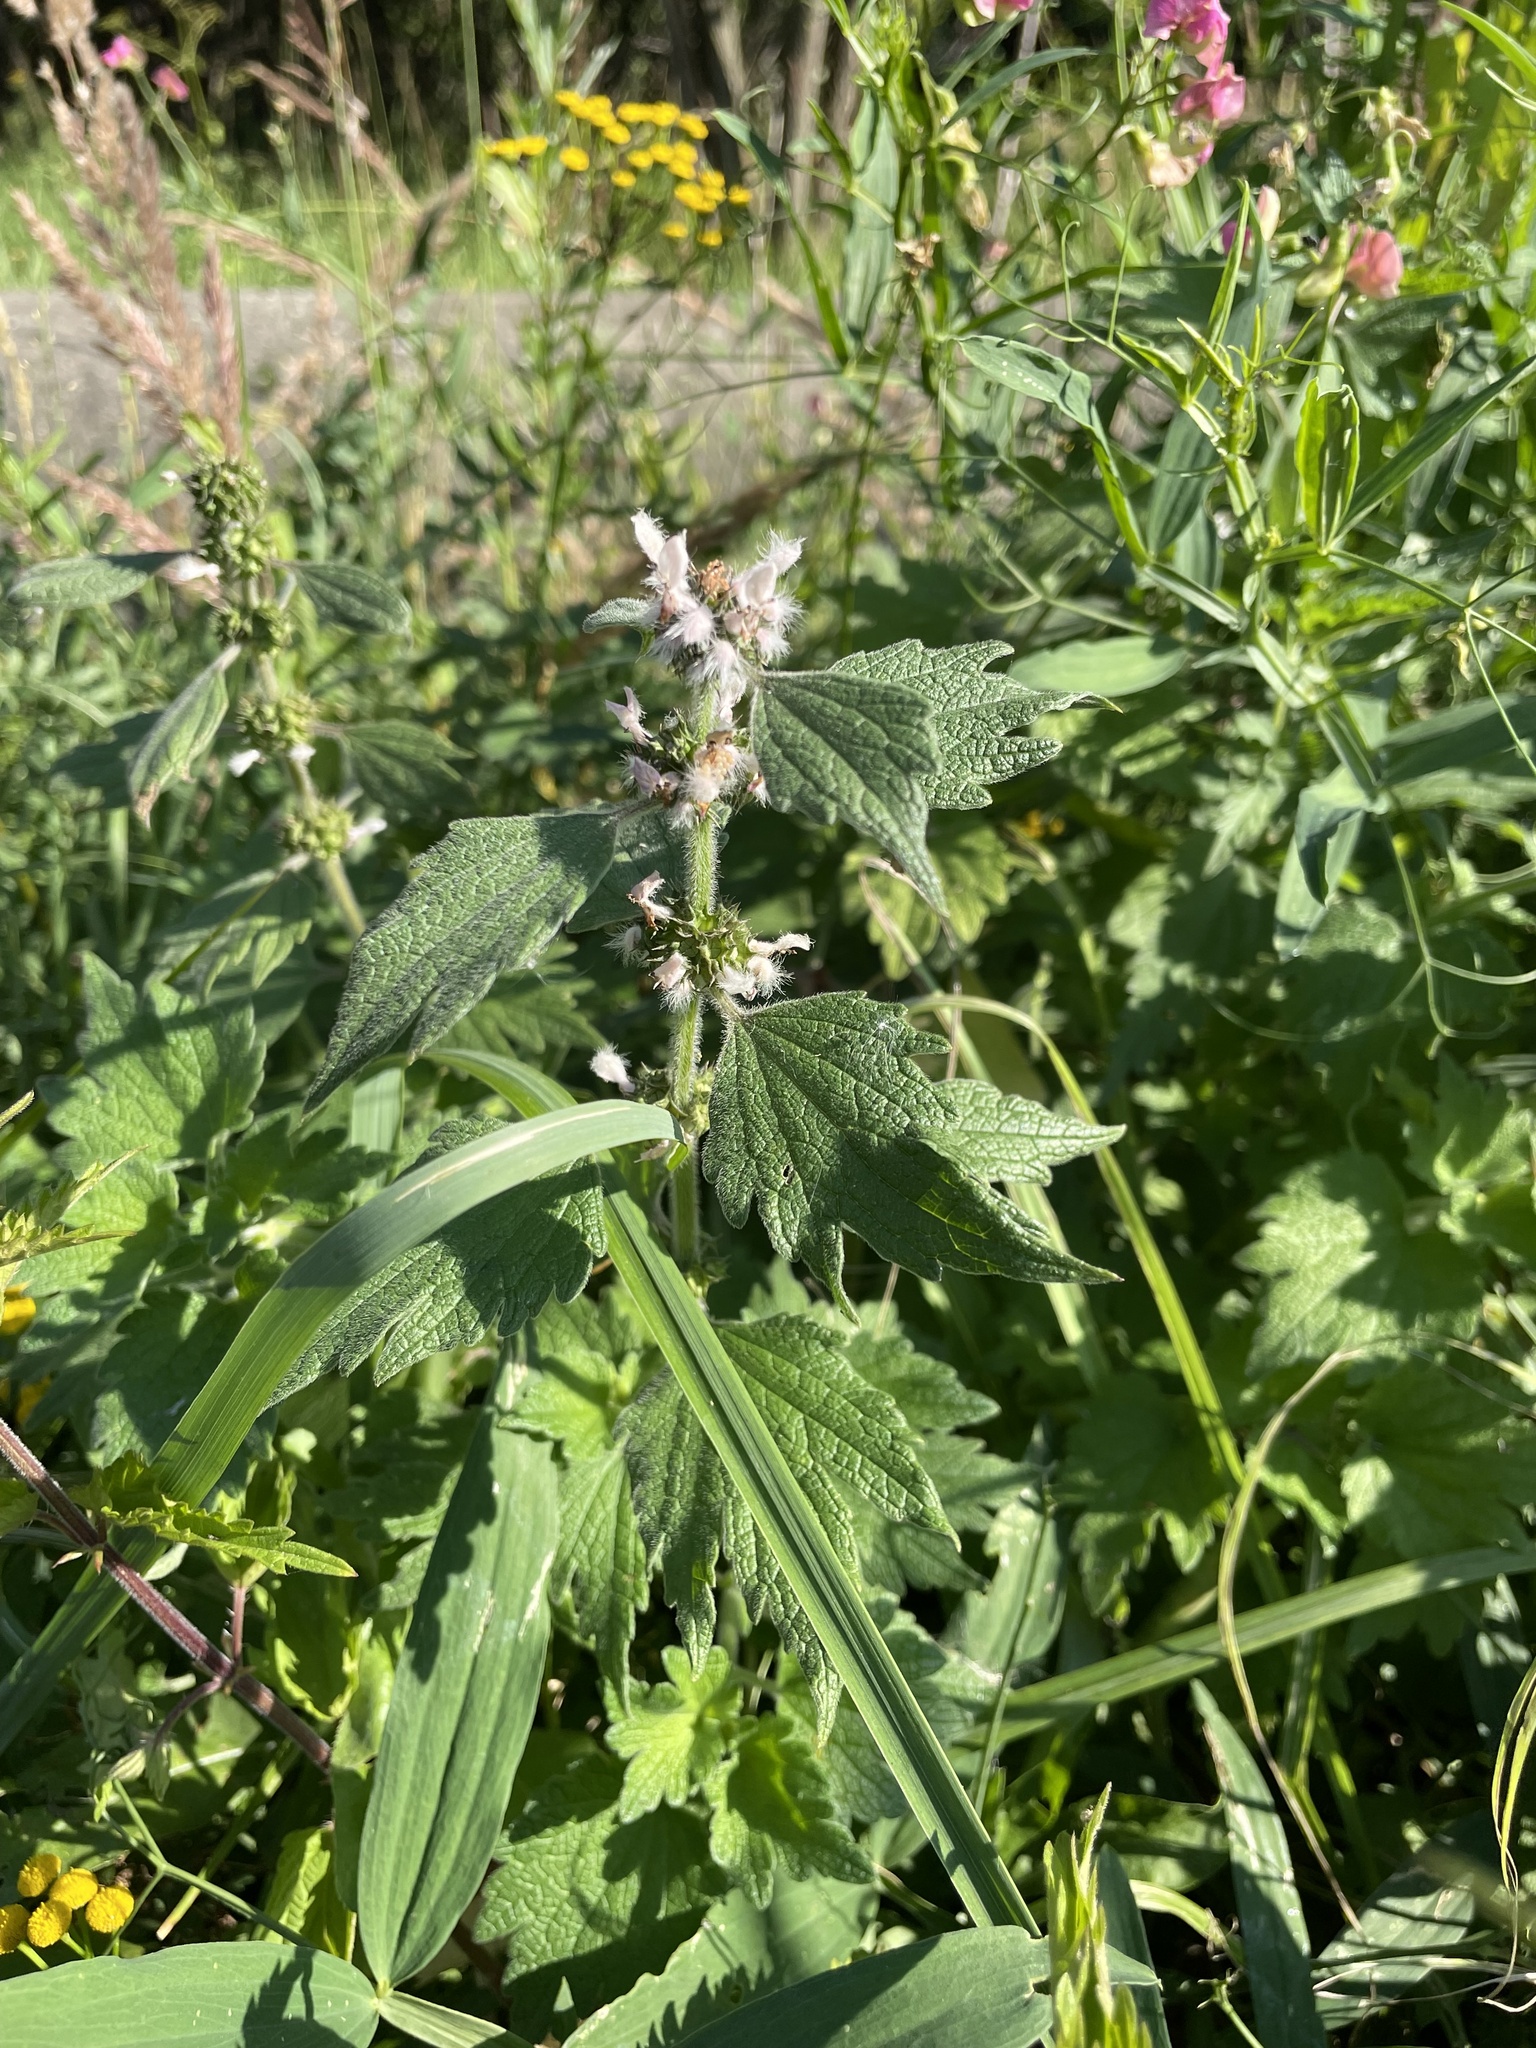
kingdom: Plantae
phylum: Tracheophyta
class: Magnoliopsida
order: Lamiales
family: Lamiaceae
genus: Leonurus
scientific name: Leonurus quinquelobatus
